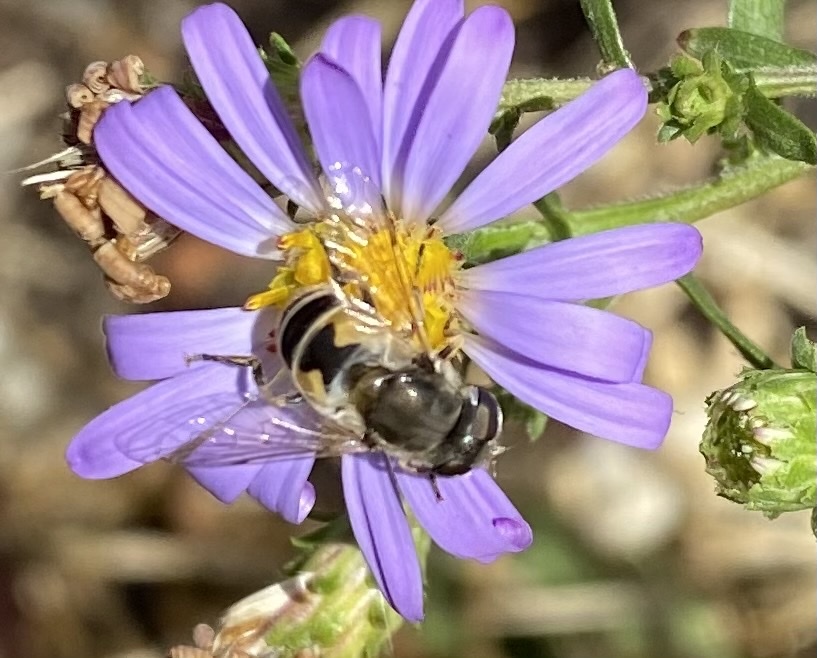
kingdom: Animalia
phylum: Arthropoda
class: Insecta
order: Diptera
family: Syrphidae
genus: Eristalis
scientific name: Eristalis arbustorum
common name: Hover fly
